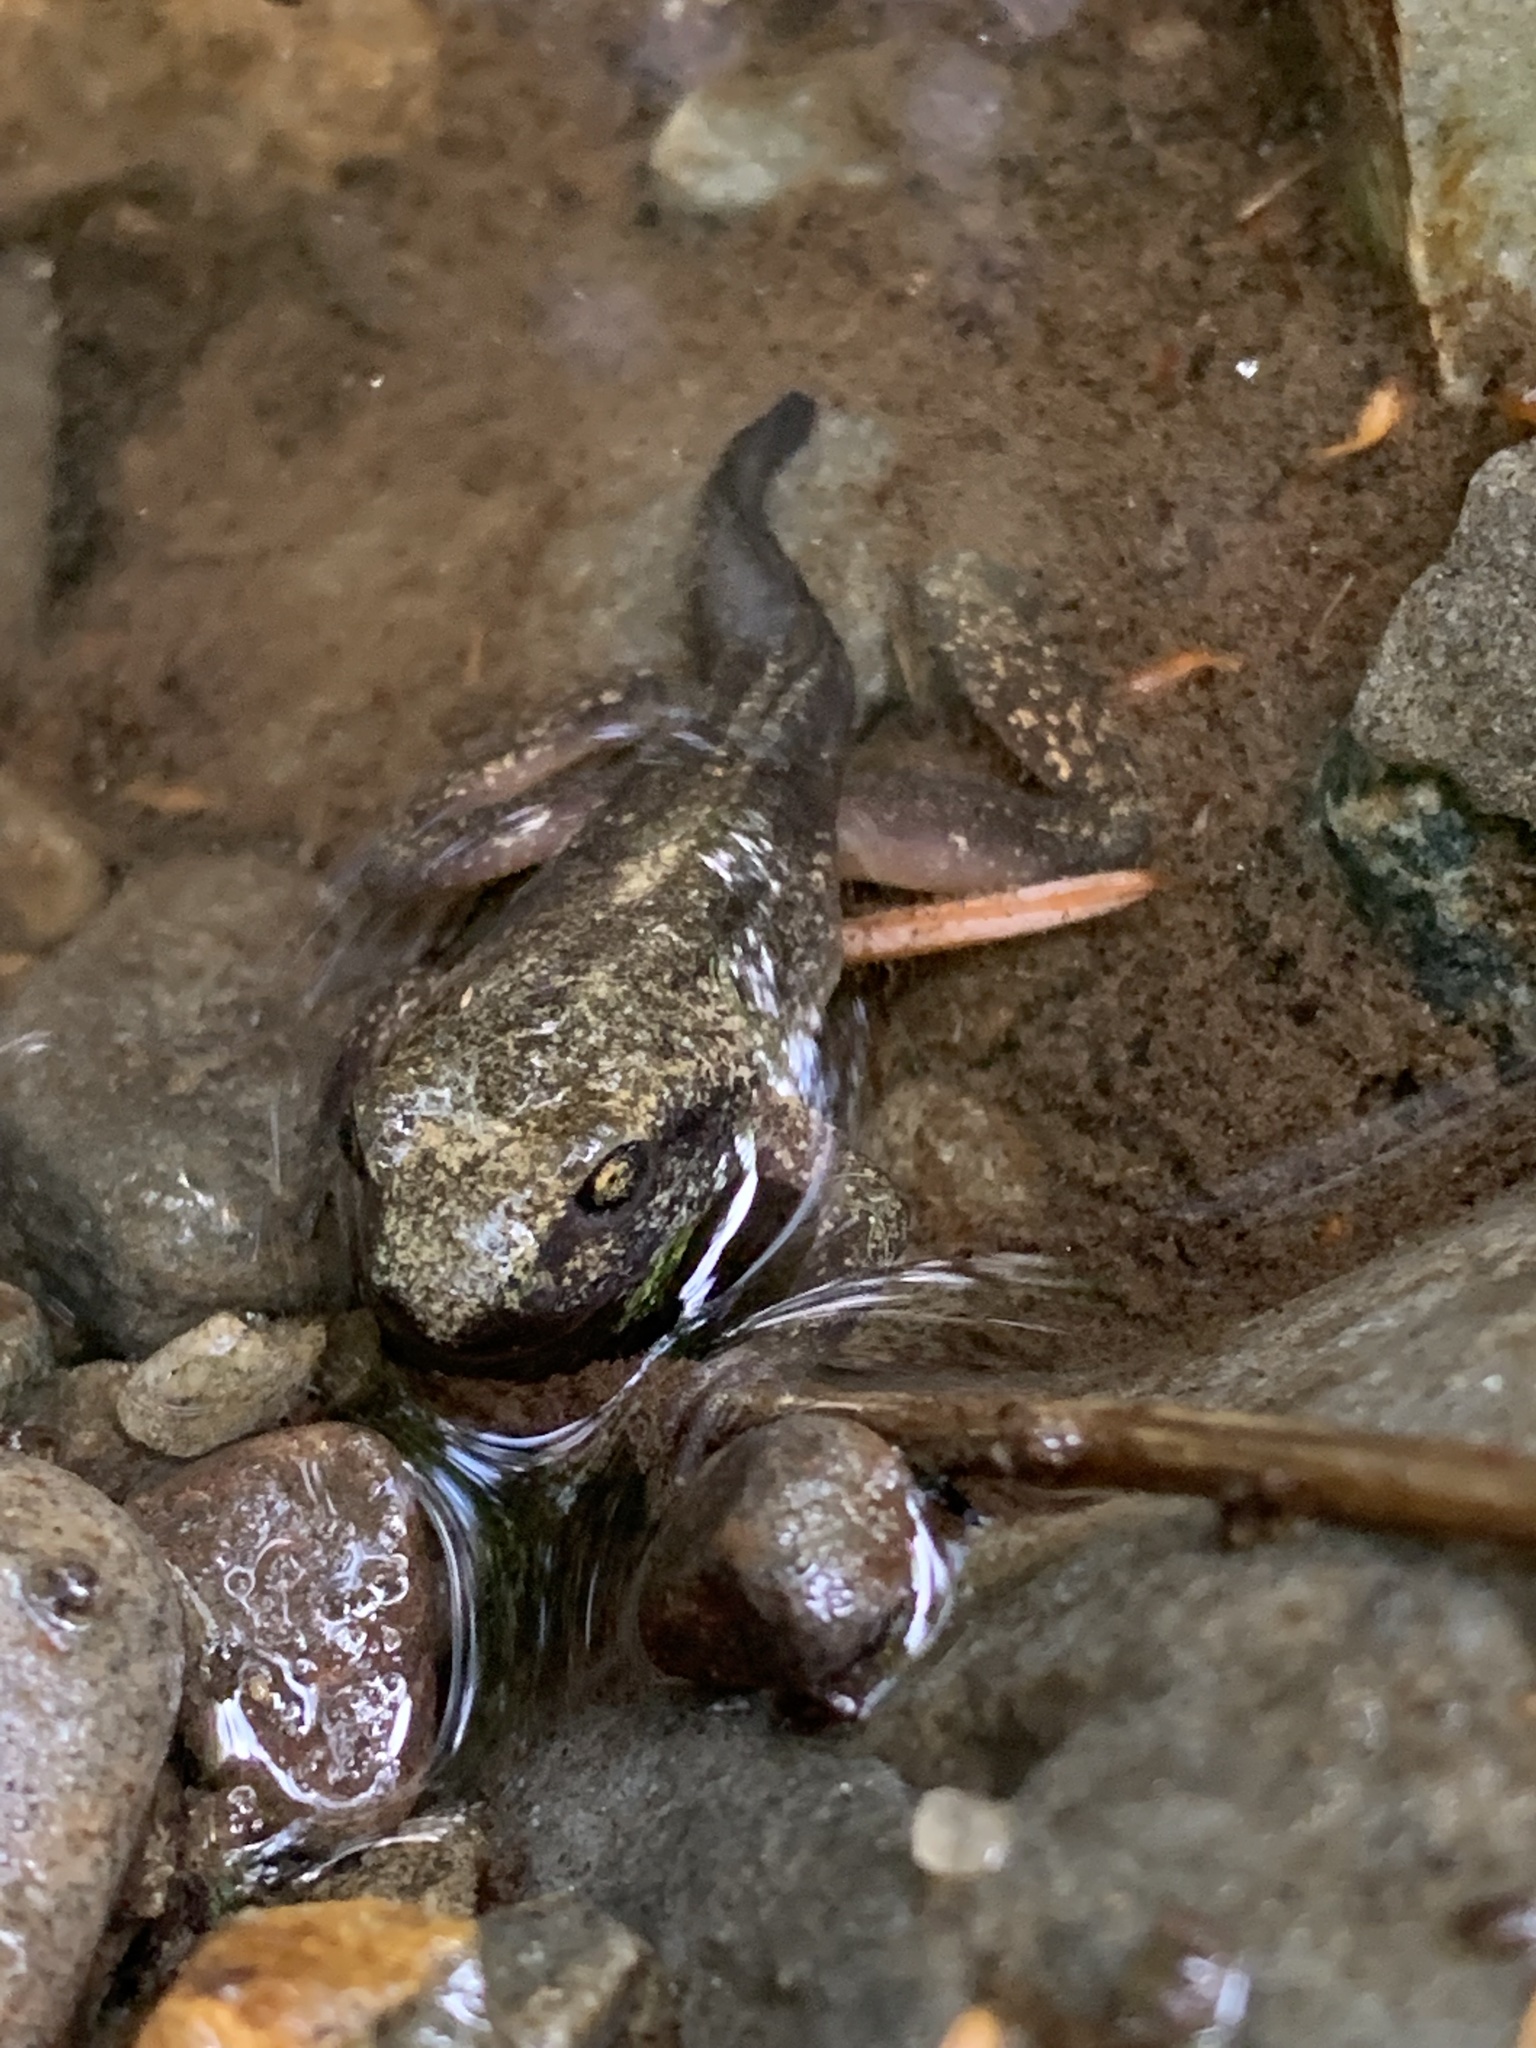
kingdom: Animalia
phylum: Chordata
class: Amphibia
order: Anura
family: Ascaphidae
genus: Ascaphus
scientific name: Ascaphus montanus
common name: Rocky mountain tailed frog
